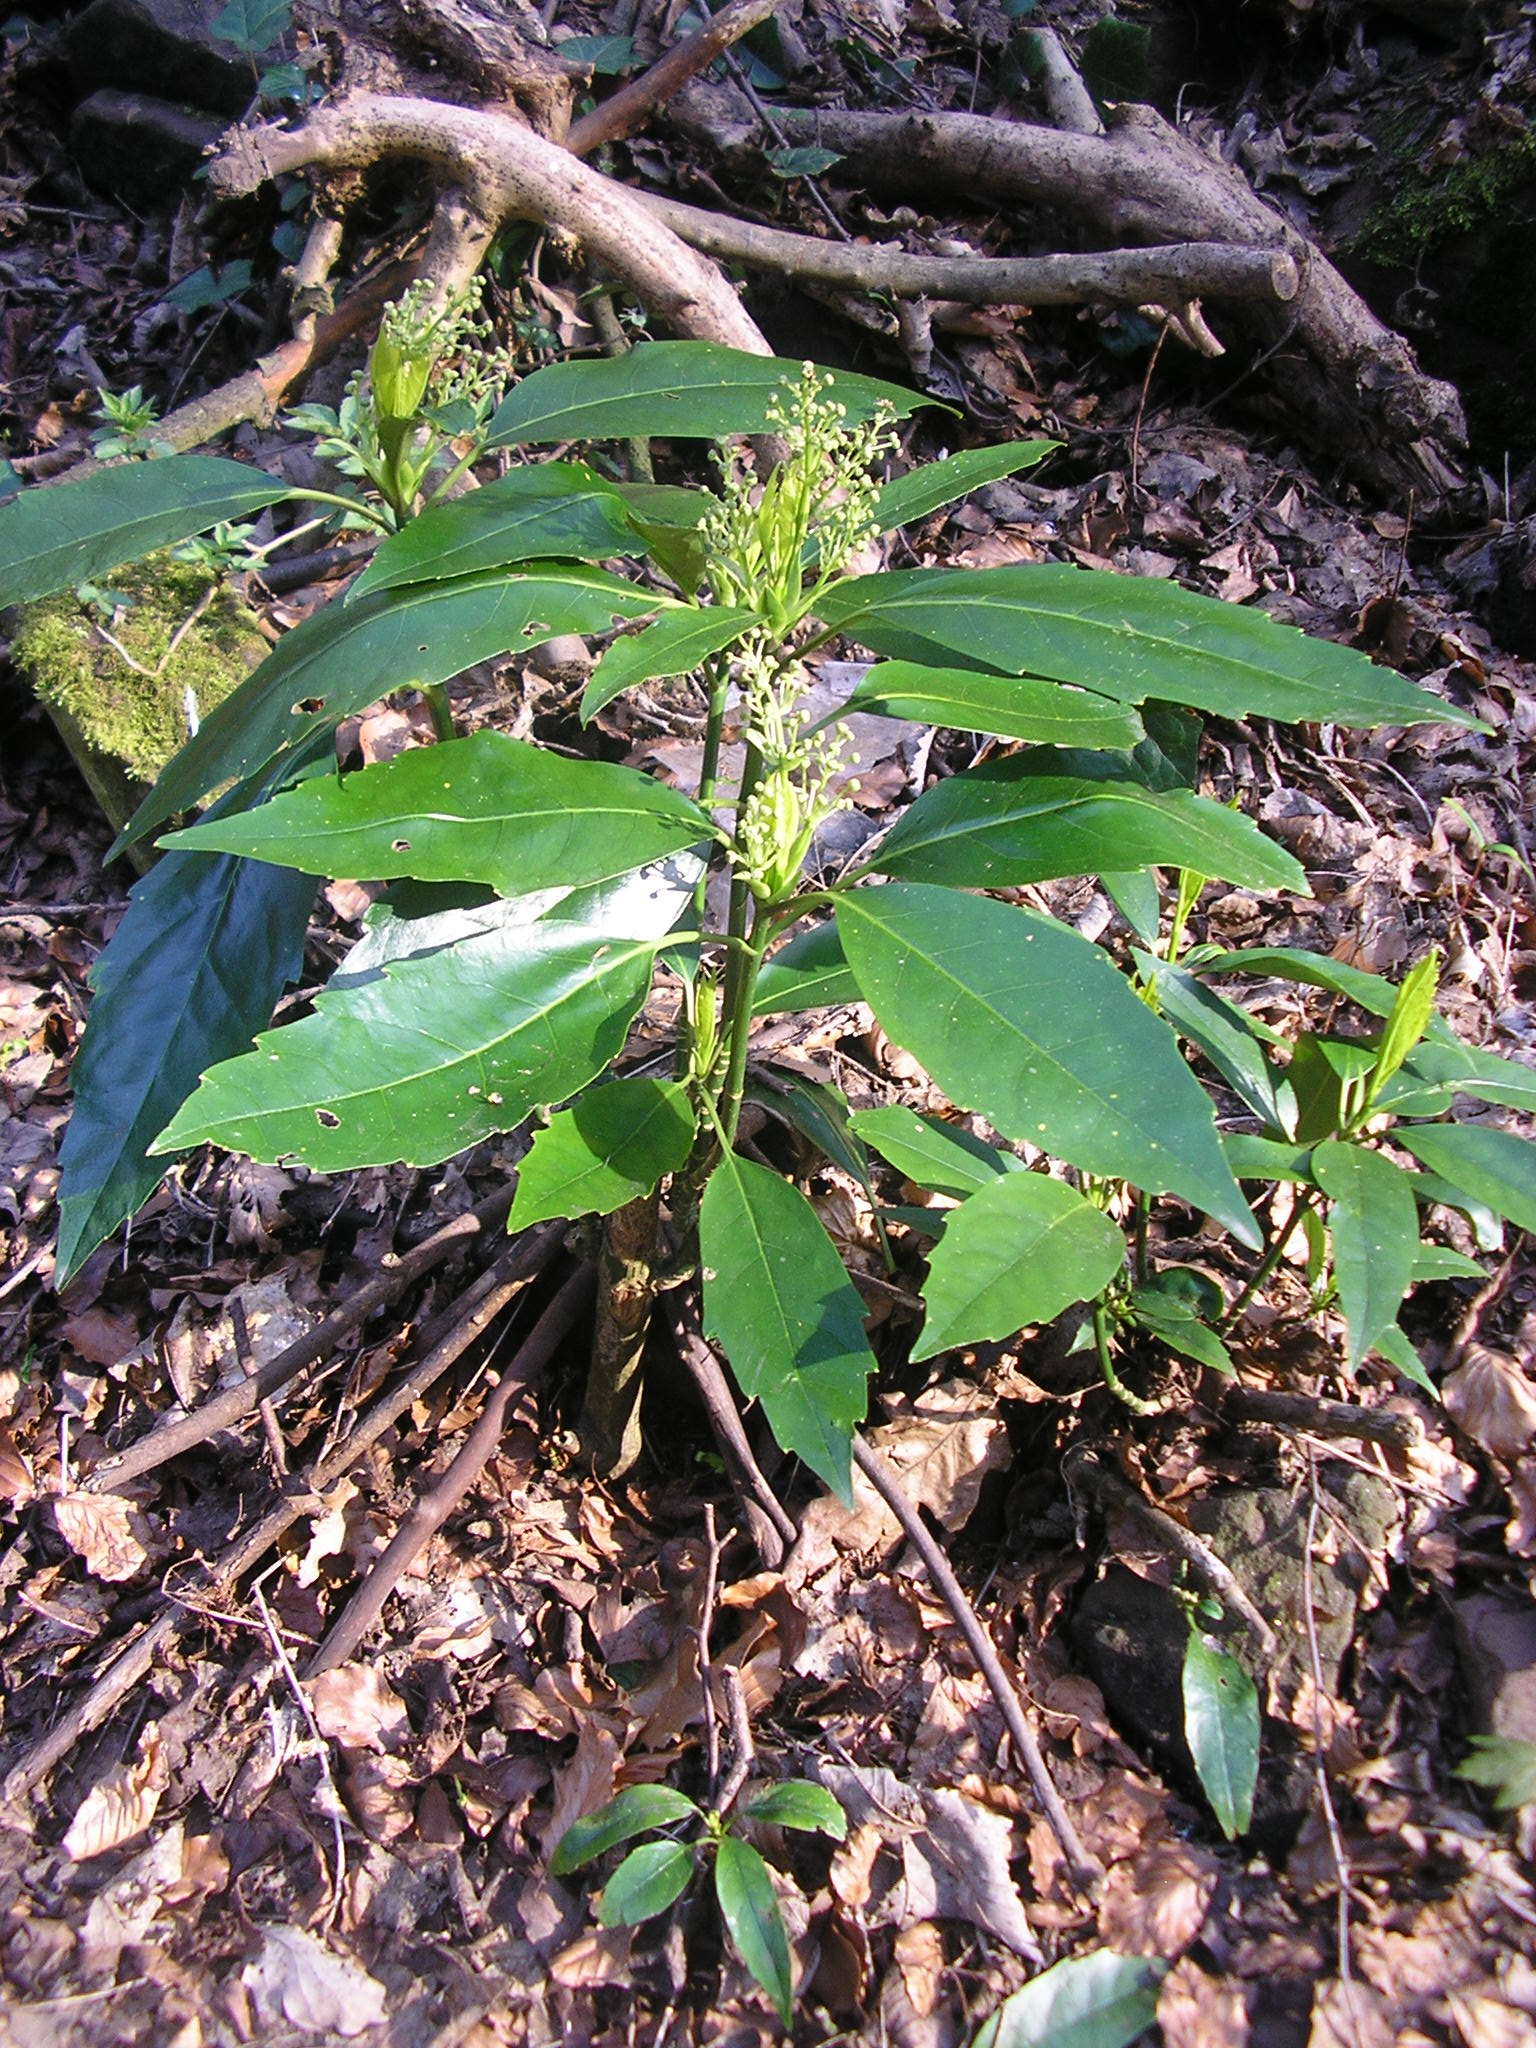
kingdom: Plantae
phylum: Tracheophyta
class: Magnoliopsida
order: Garryales
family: Garryaceae
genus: Aucuba
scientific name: Aucuba japonica
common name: Spotted-laurel
